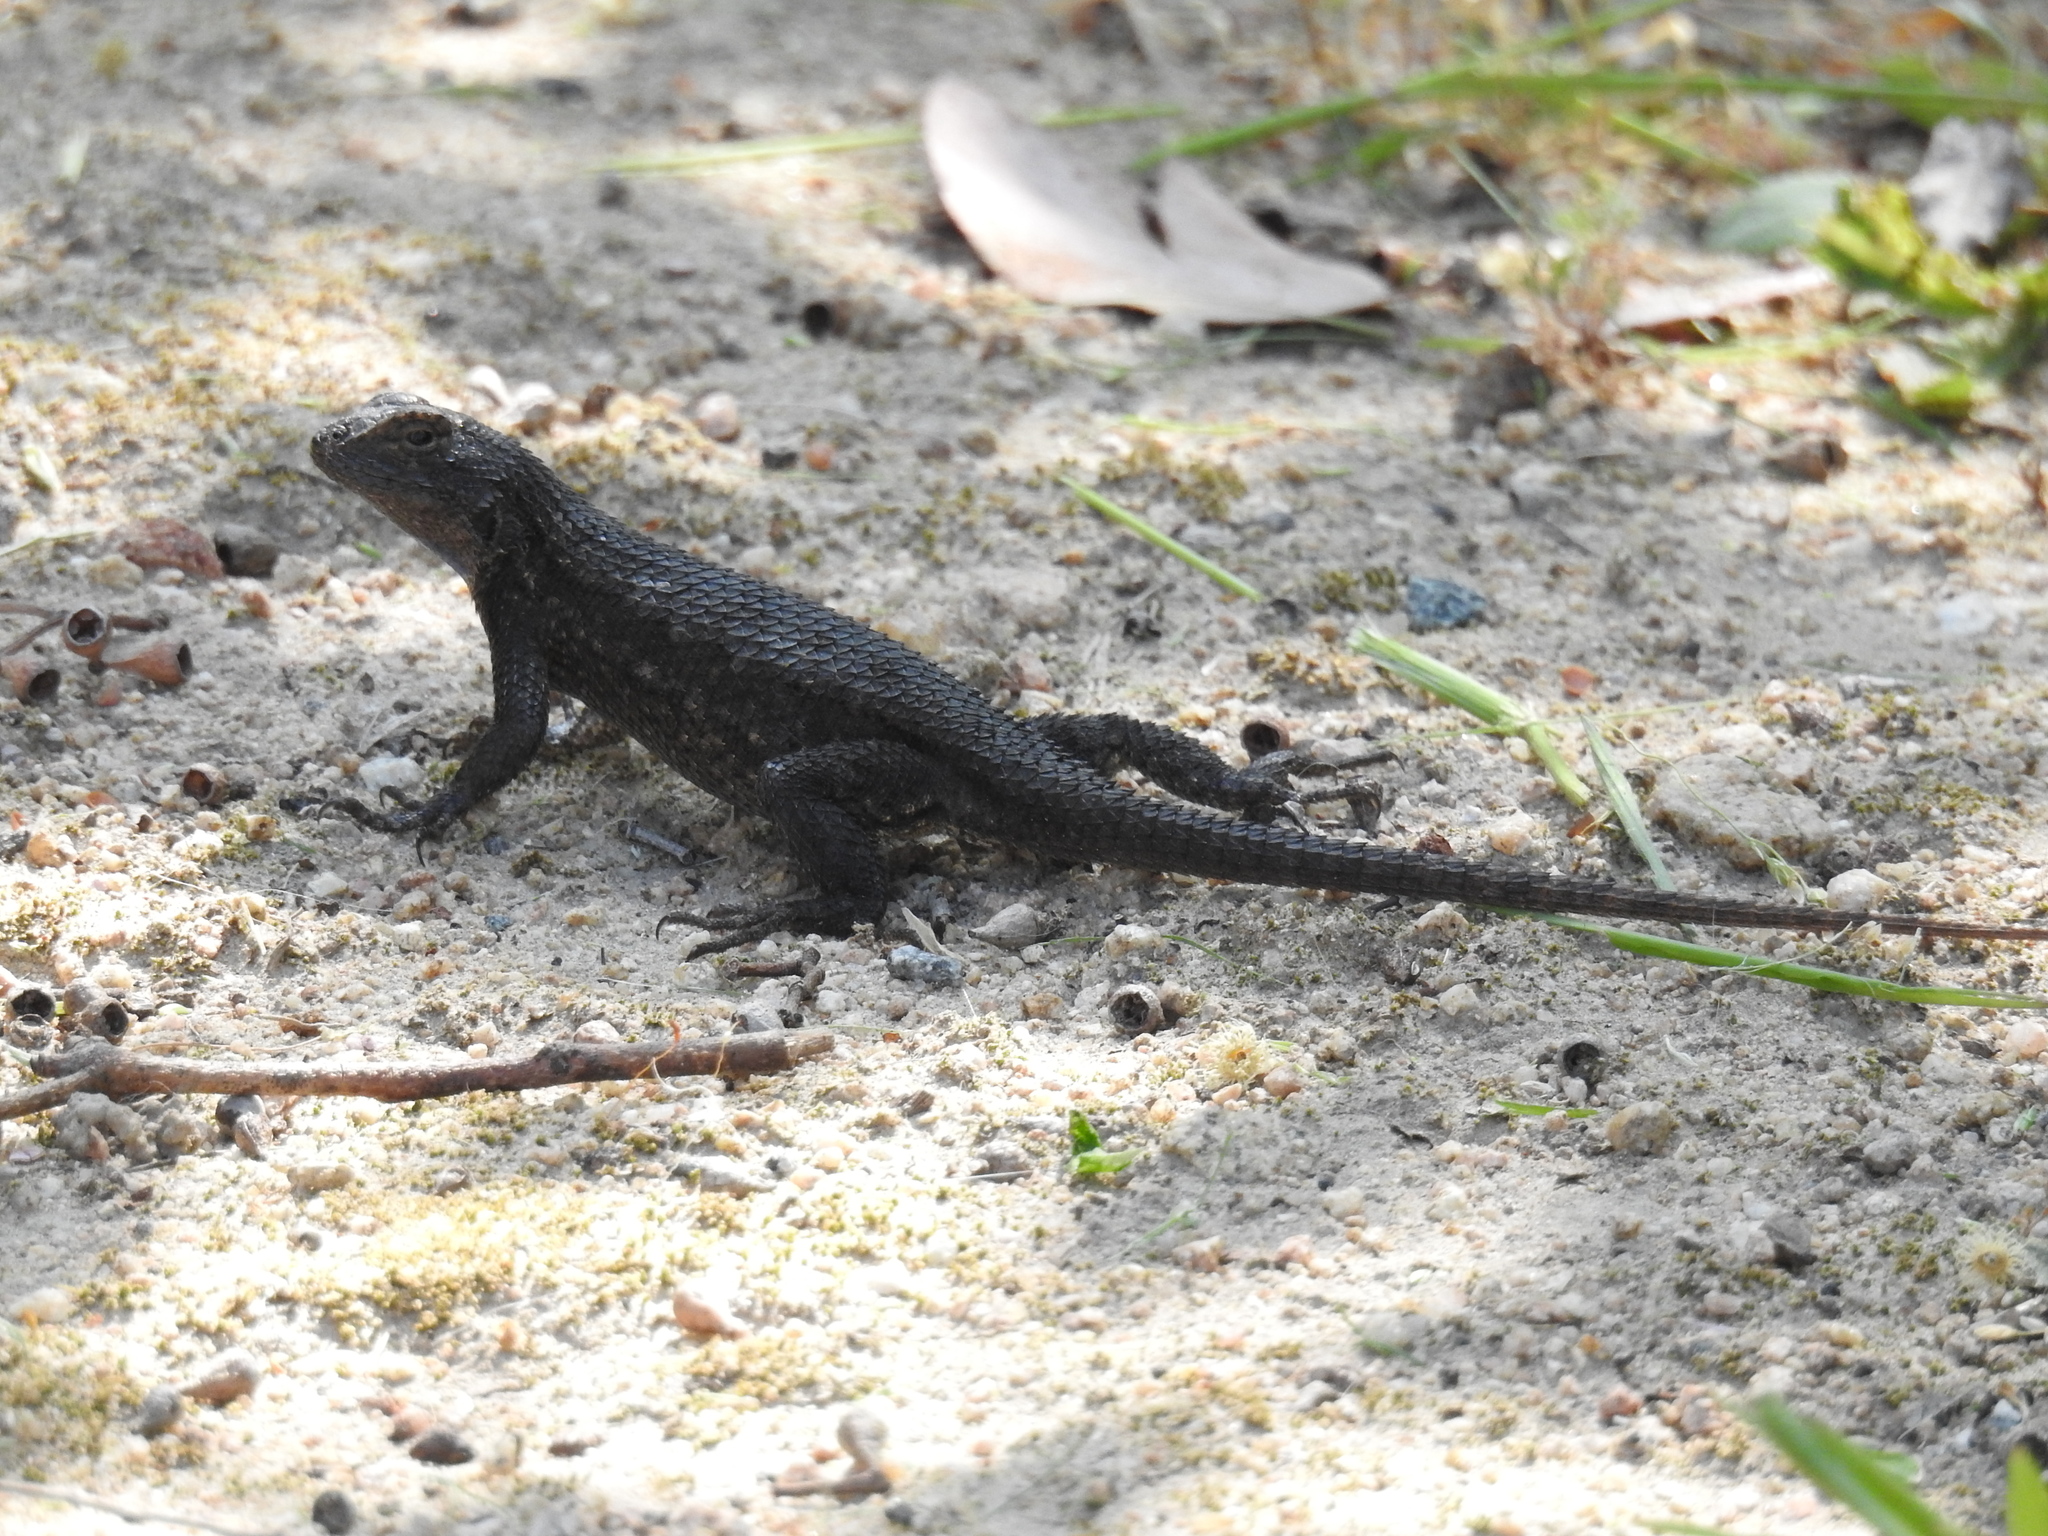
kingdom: Animalia
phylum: Chordata
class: Squamata
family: Phrynosomatidae
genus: Sceloporus
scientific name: Sceloporus occidentalis
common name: Western fence lizard
